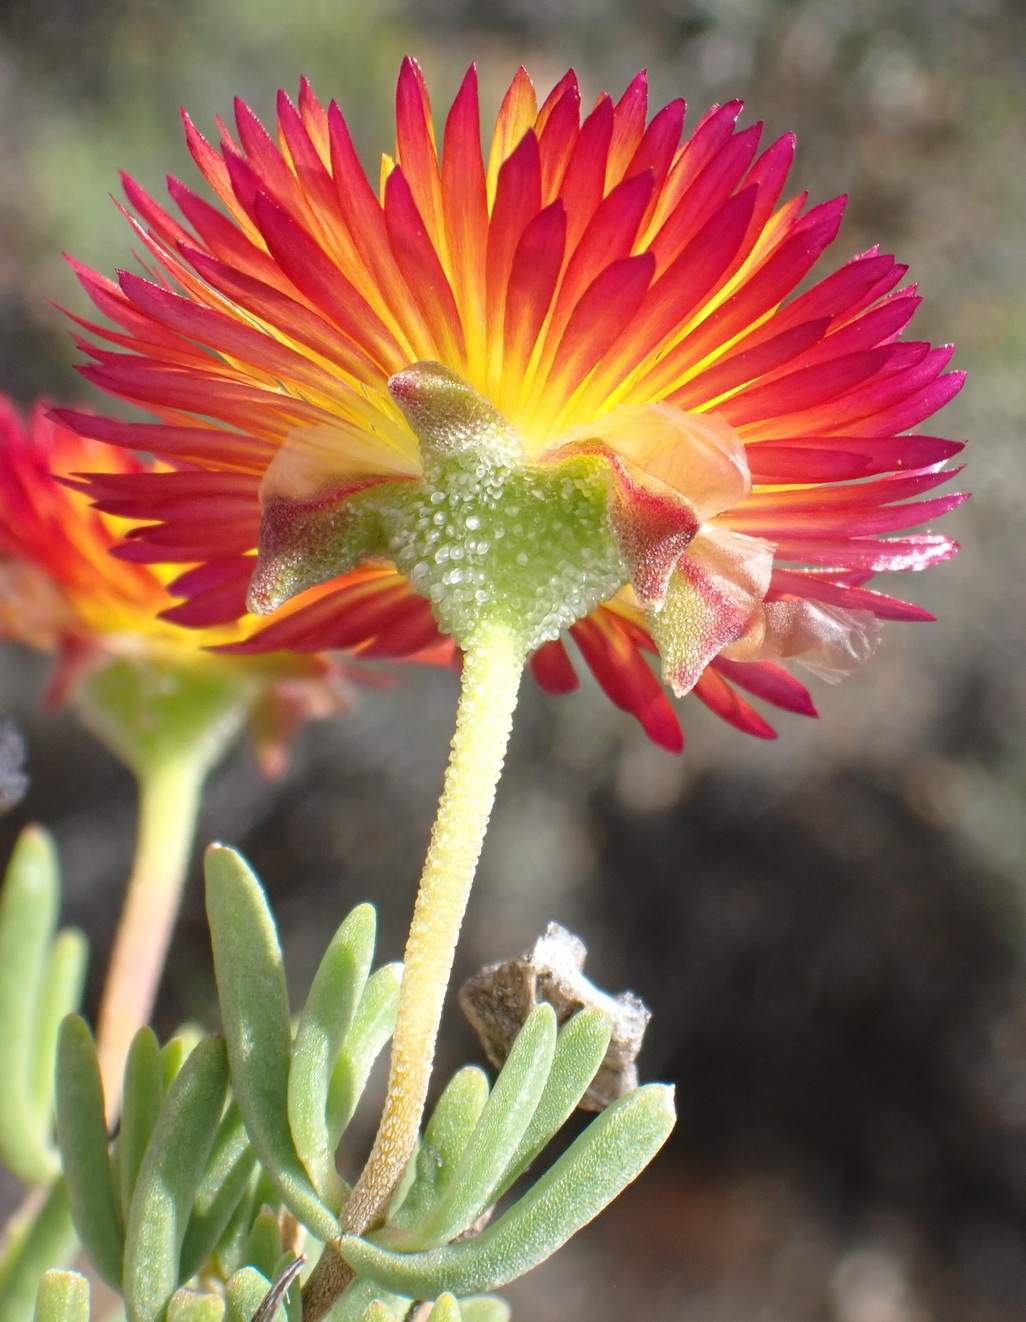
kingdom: Plantae
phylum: Tracheophyta
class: Magnoliopsida
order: Caryophyllales
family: Aizoaceae
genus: Drosanthemum
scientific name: Drosanthemum bicolor
